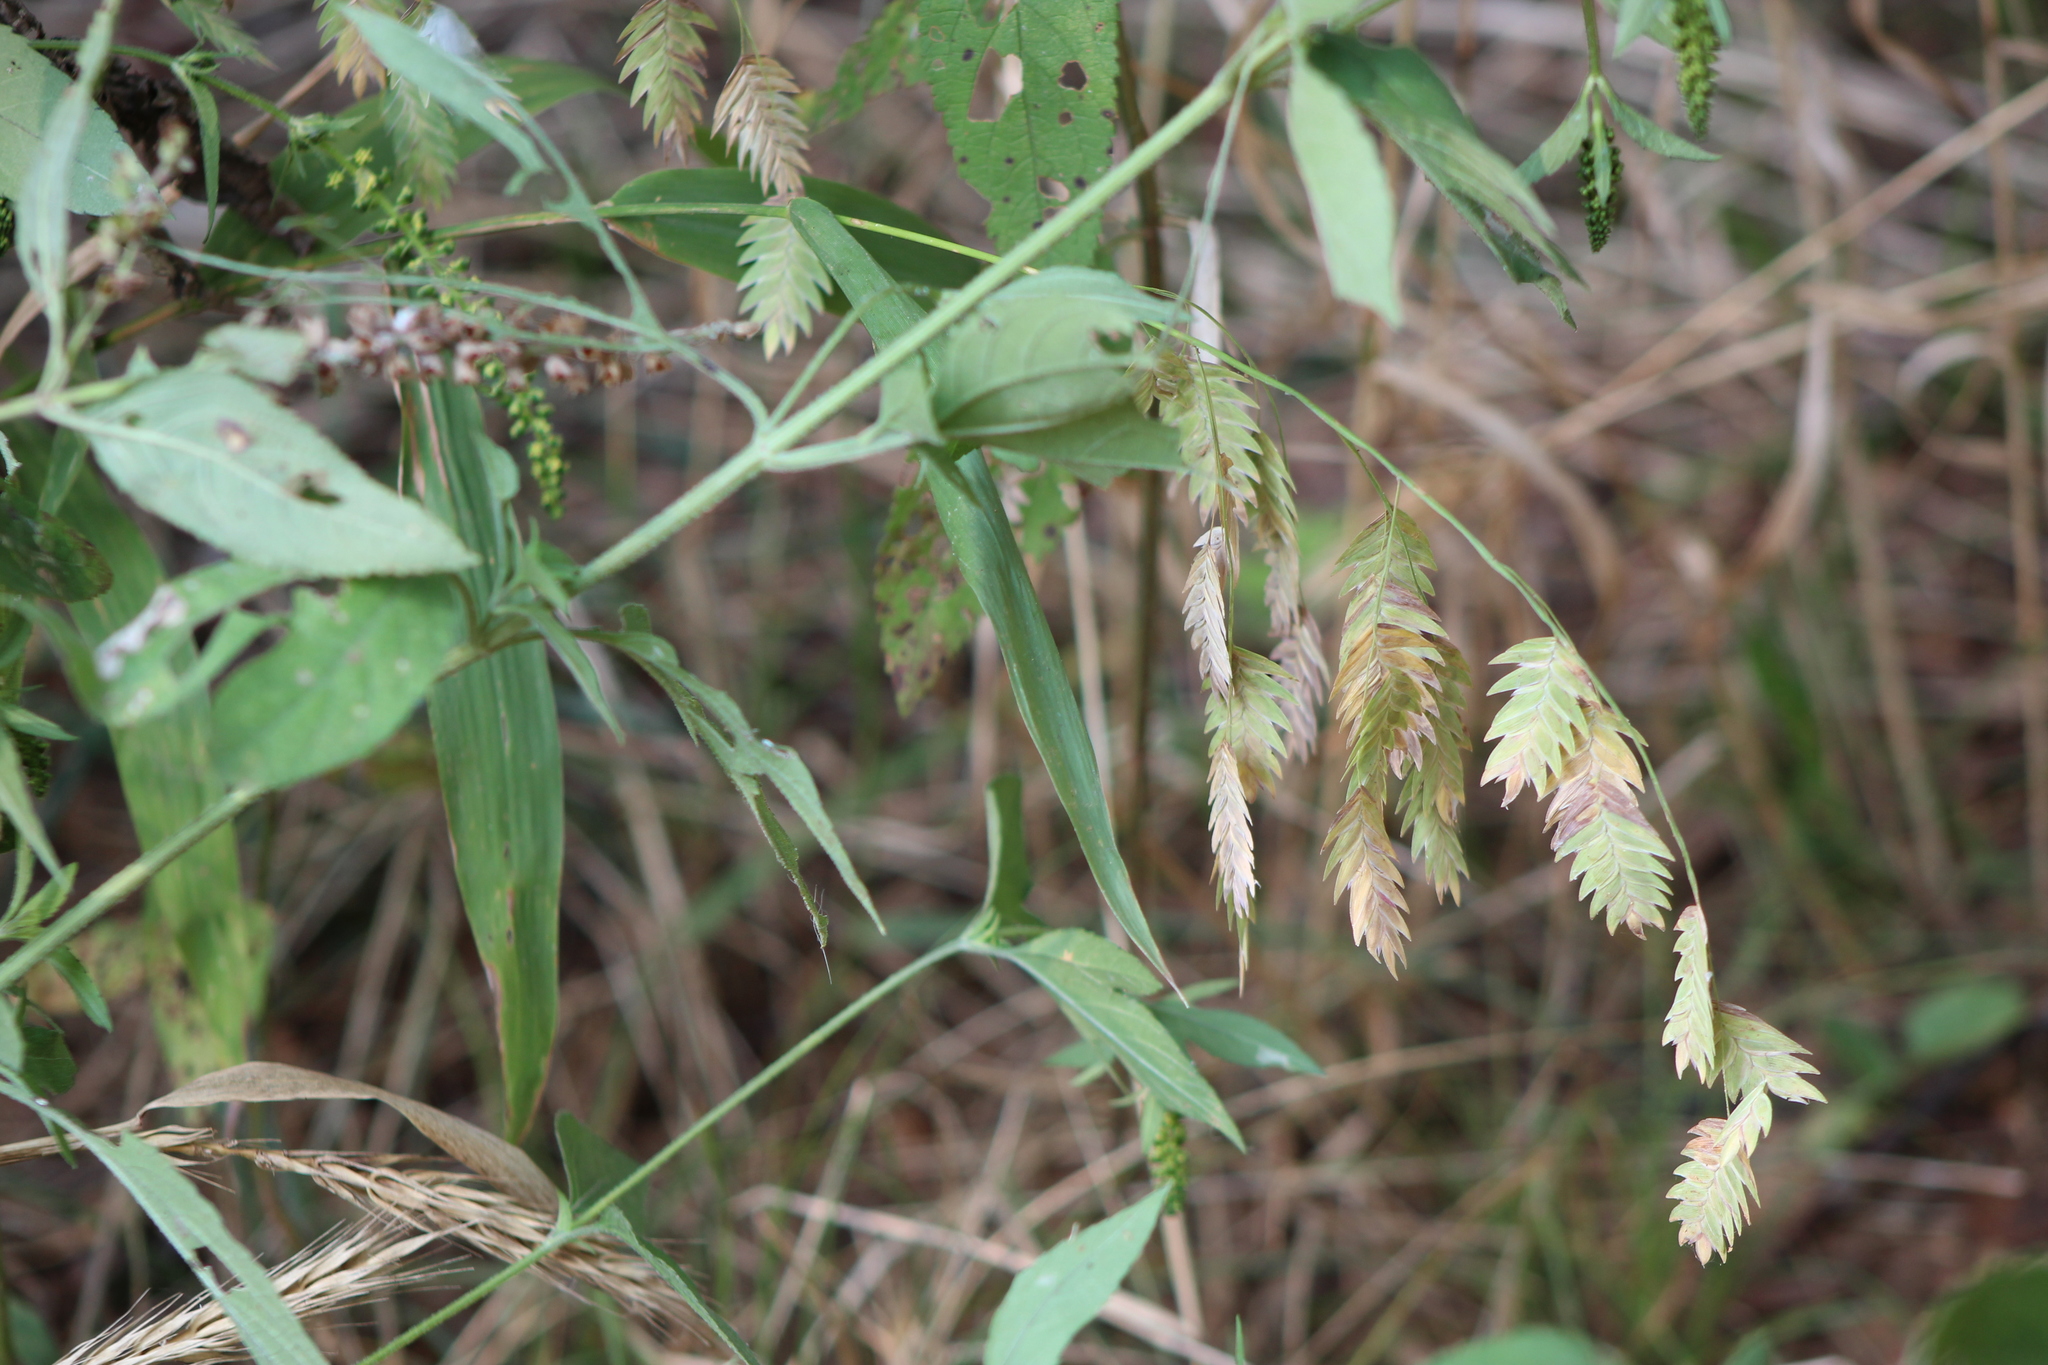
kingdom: Plantae
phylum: Tracheophyta
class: Liliopsida
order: Poales
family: Poaceae
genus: Chasmanthium
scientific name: Chasmanthium latifolium
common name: Broad-leaved chasmanthium
